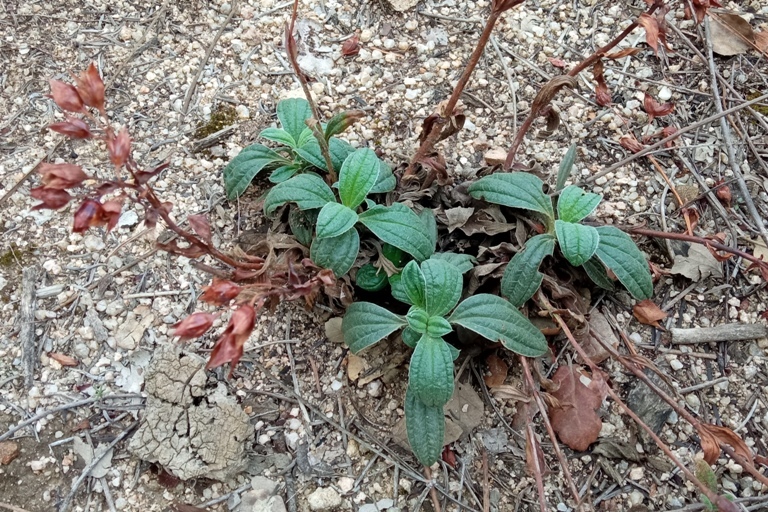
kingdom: Plantae
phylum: Tracheophyta
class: Magnoliopsida
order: Malvales
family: Cistaceae
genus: Tuberaria
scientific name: Tuberaria lignosa
